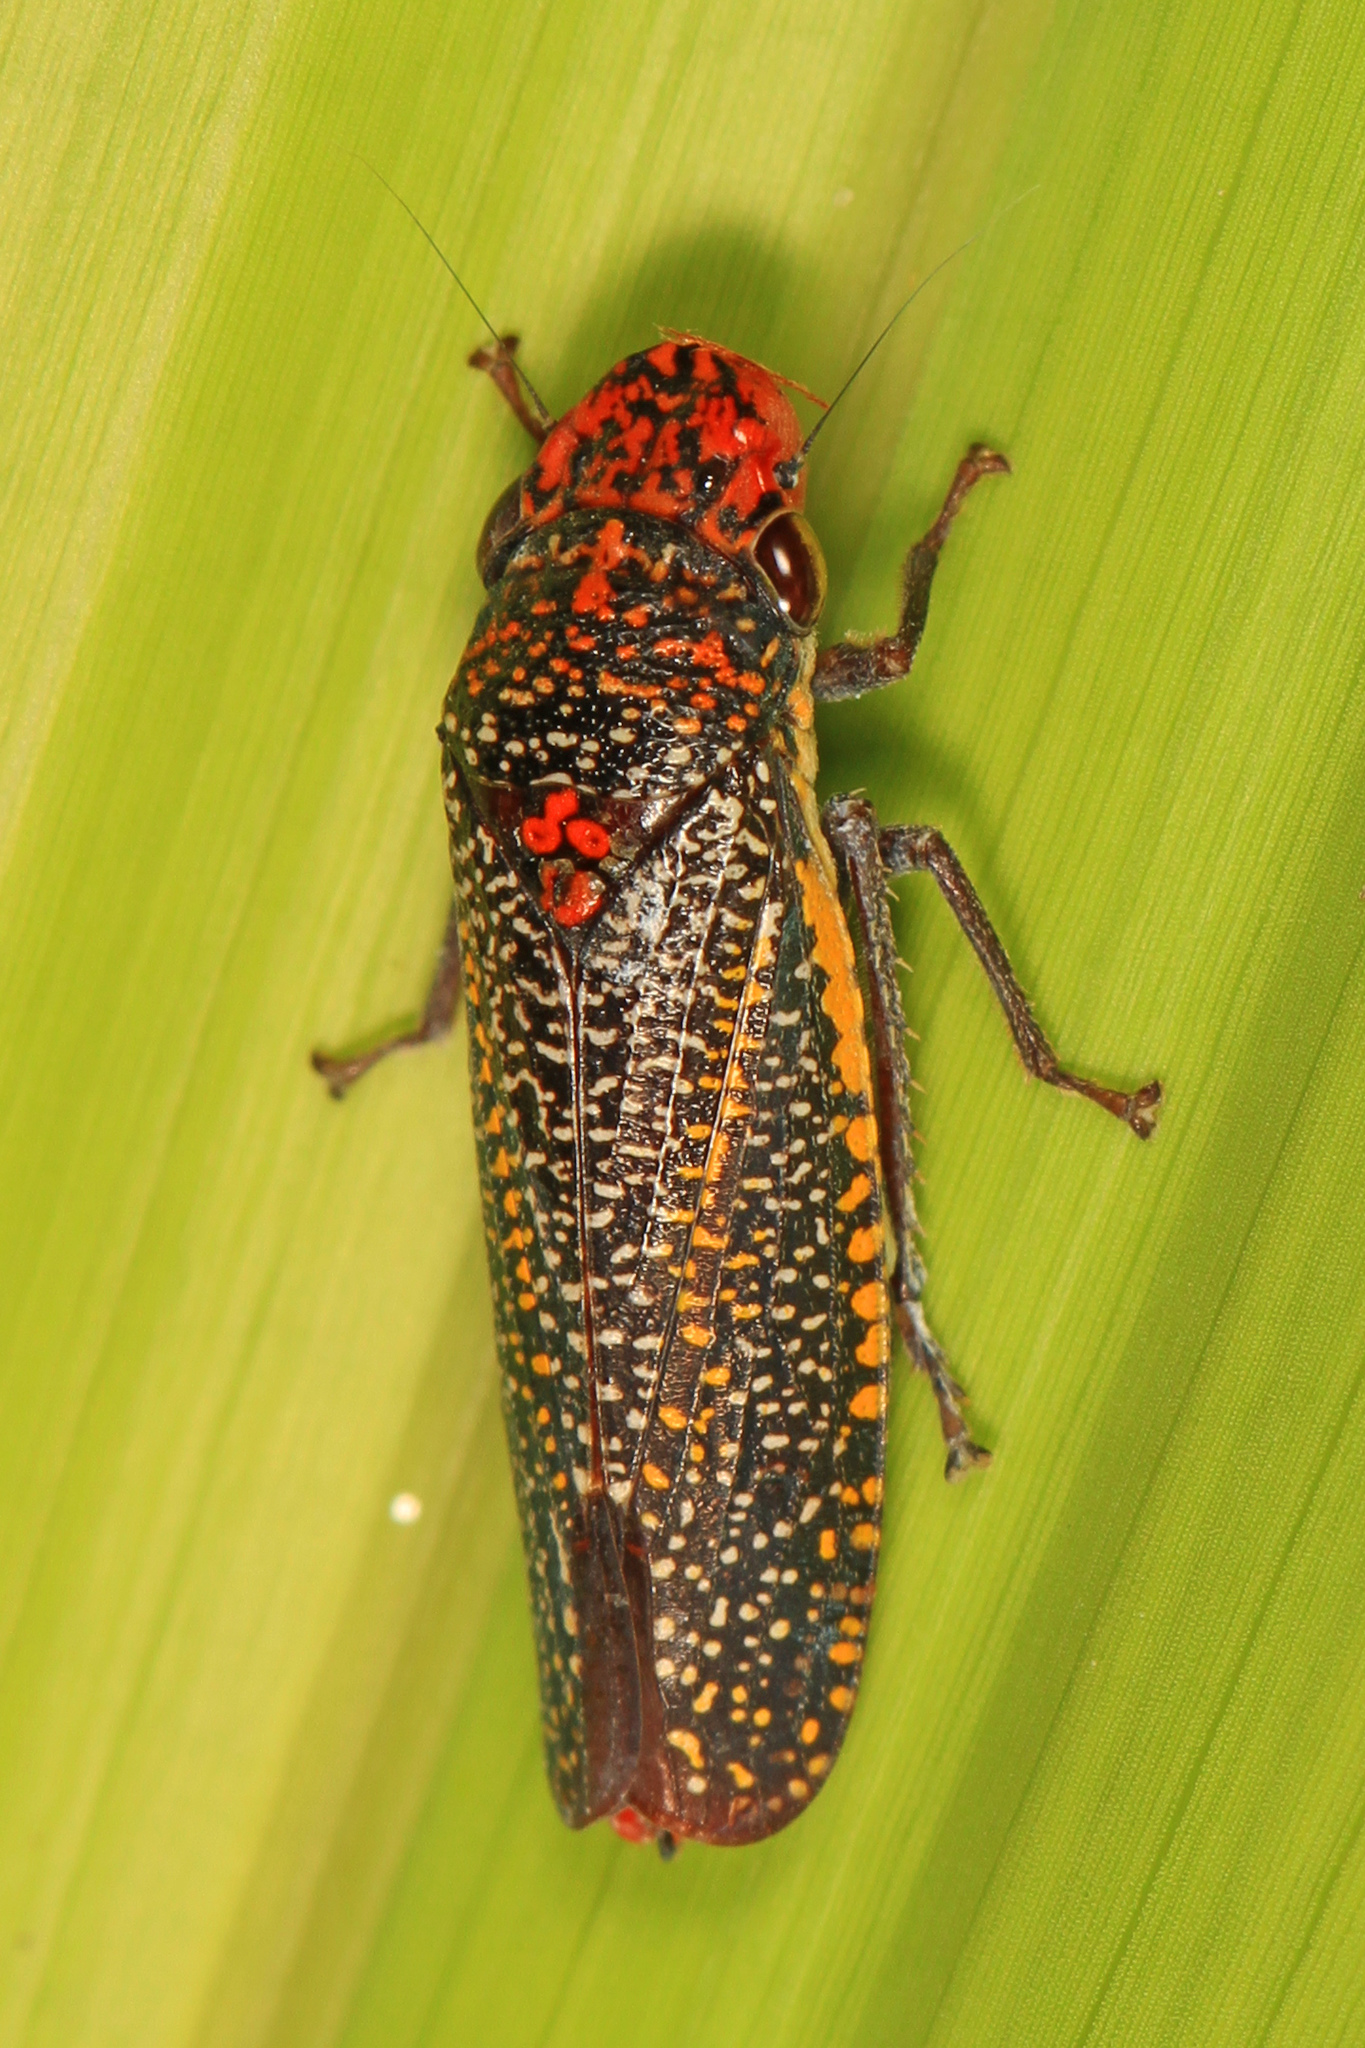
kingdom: Animalia
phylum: Arthropoda
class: Insecta
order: Hemiptera
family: Cicadellidae
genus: Paraulacizes
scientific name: Paraulacizes irrorata
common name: Speckled sharpshooter
